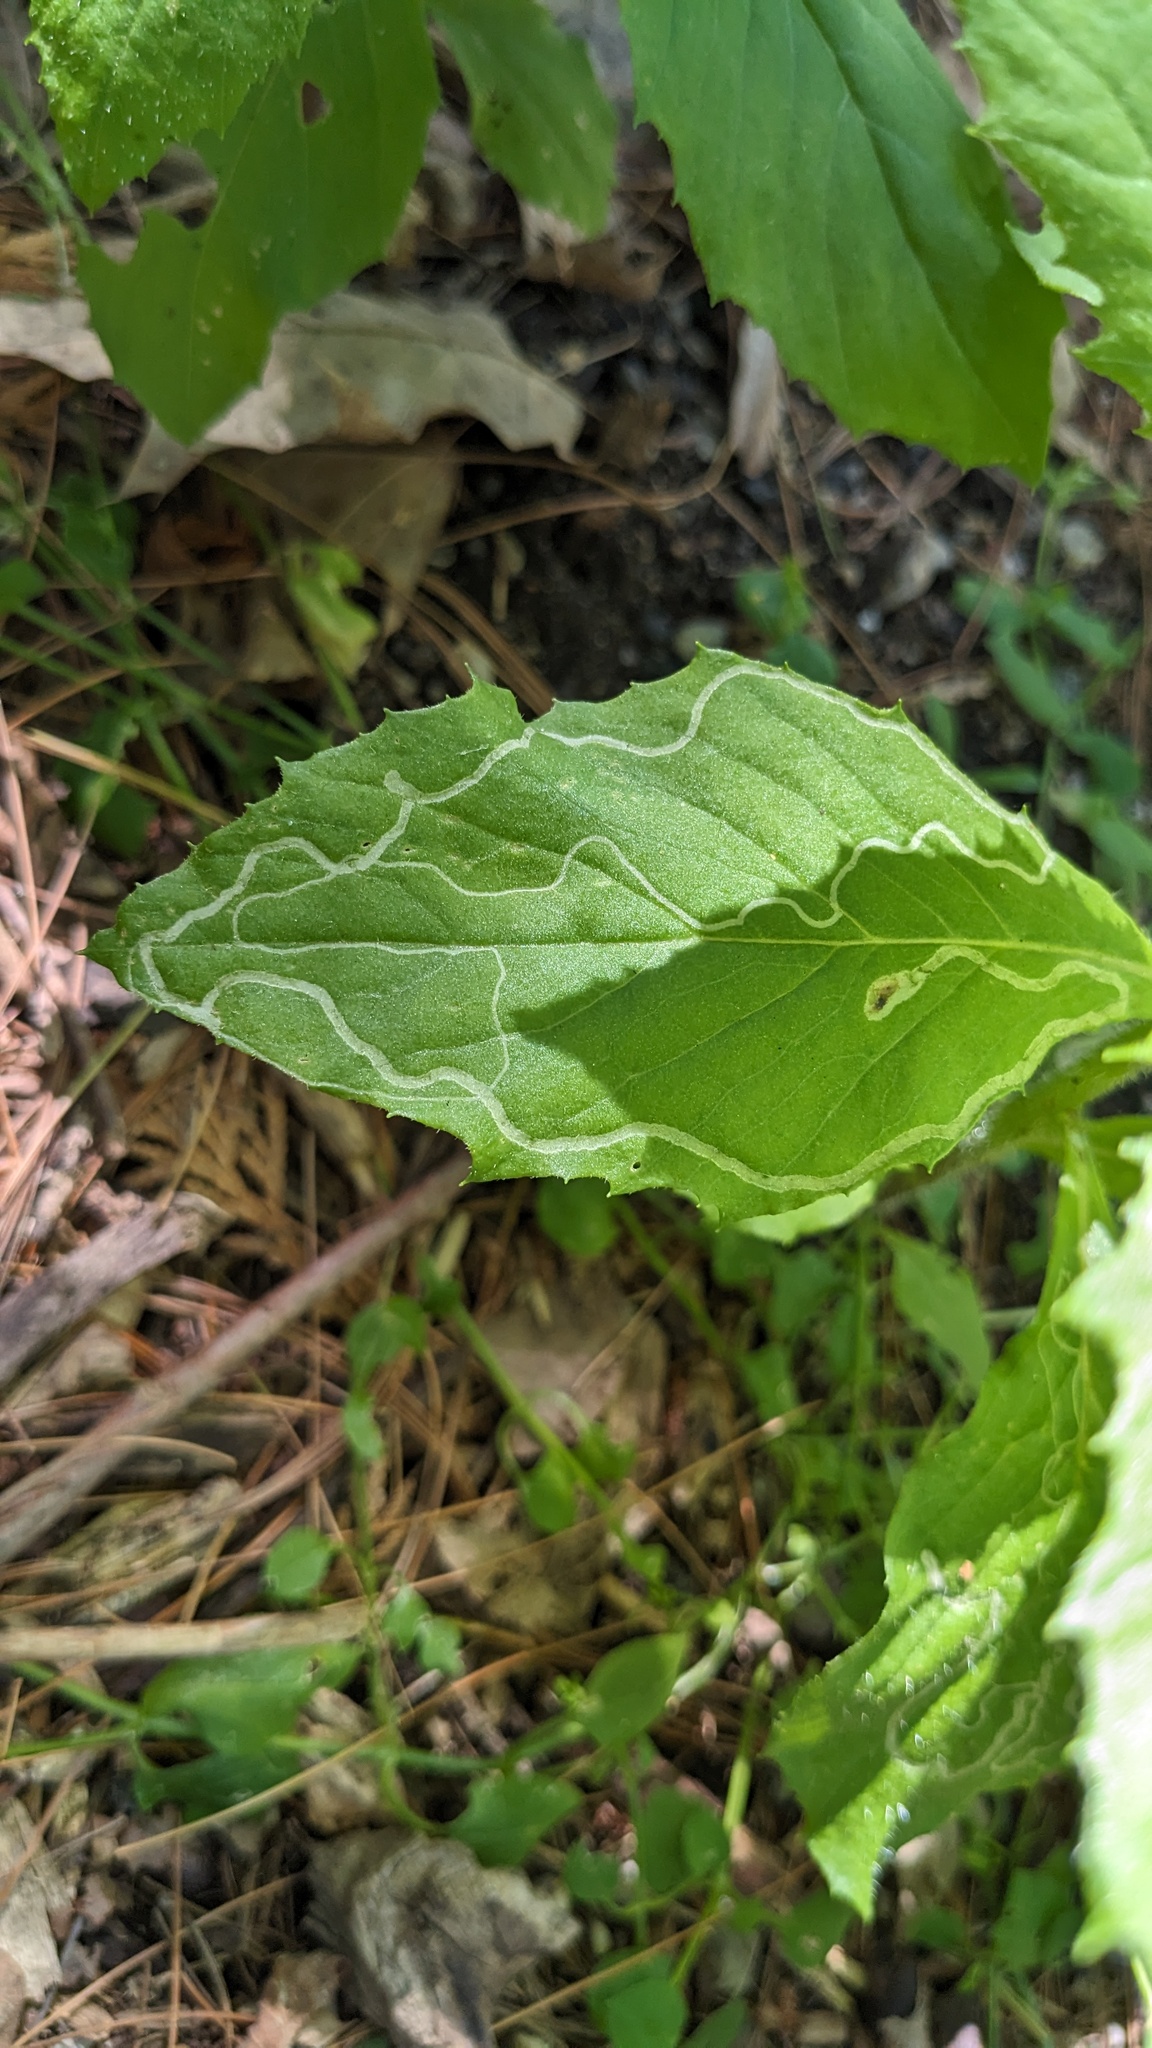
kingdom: Animalia
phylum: Arthropoda
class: Insecta
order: Lepidoptera
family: Gracillariidae
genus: Phyllocnistis
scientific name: Phyllocnistis insignis
